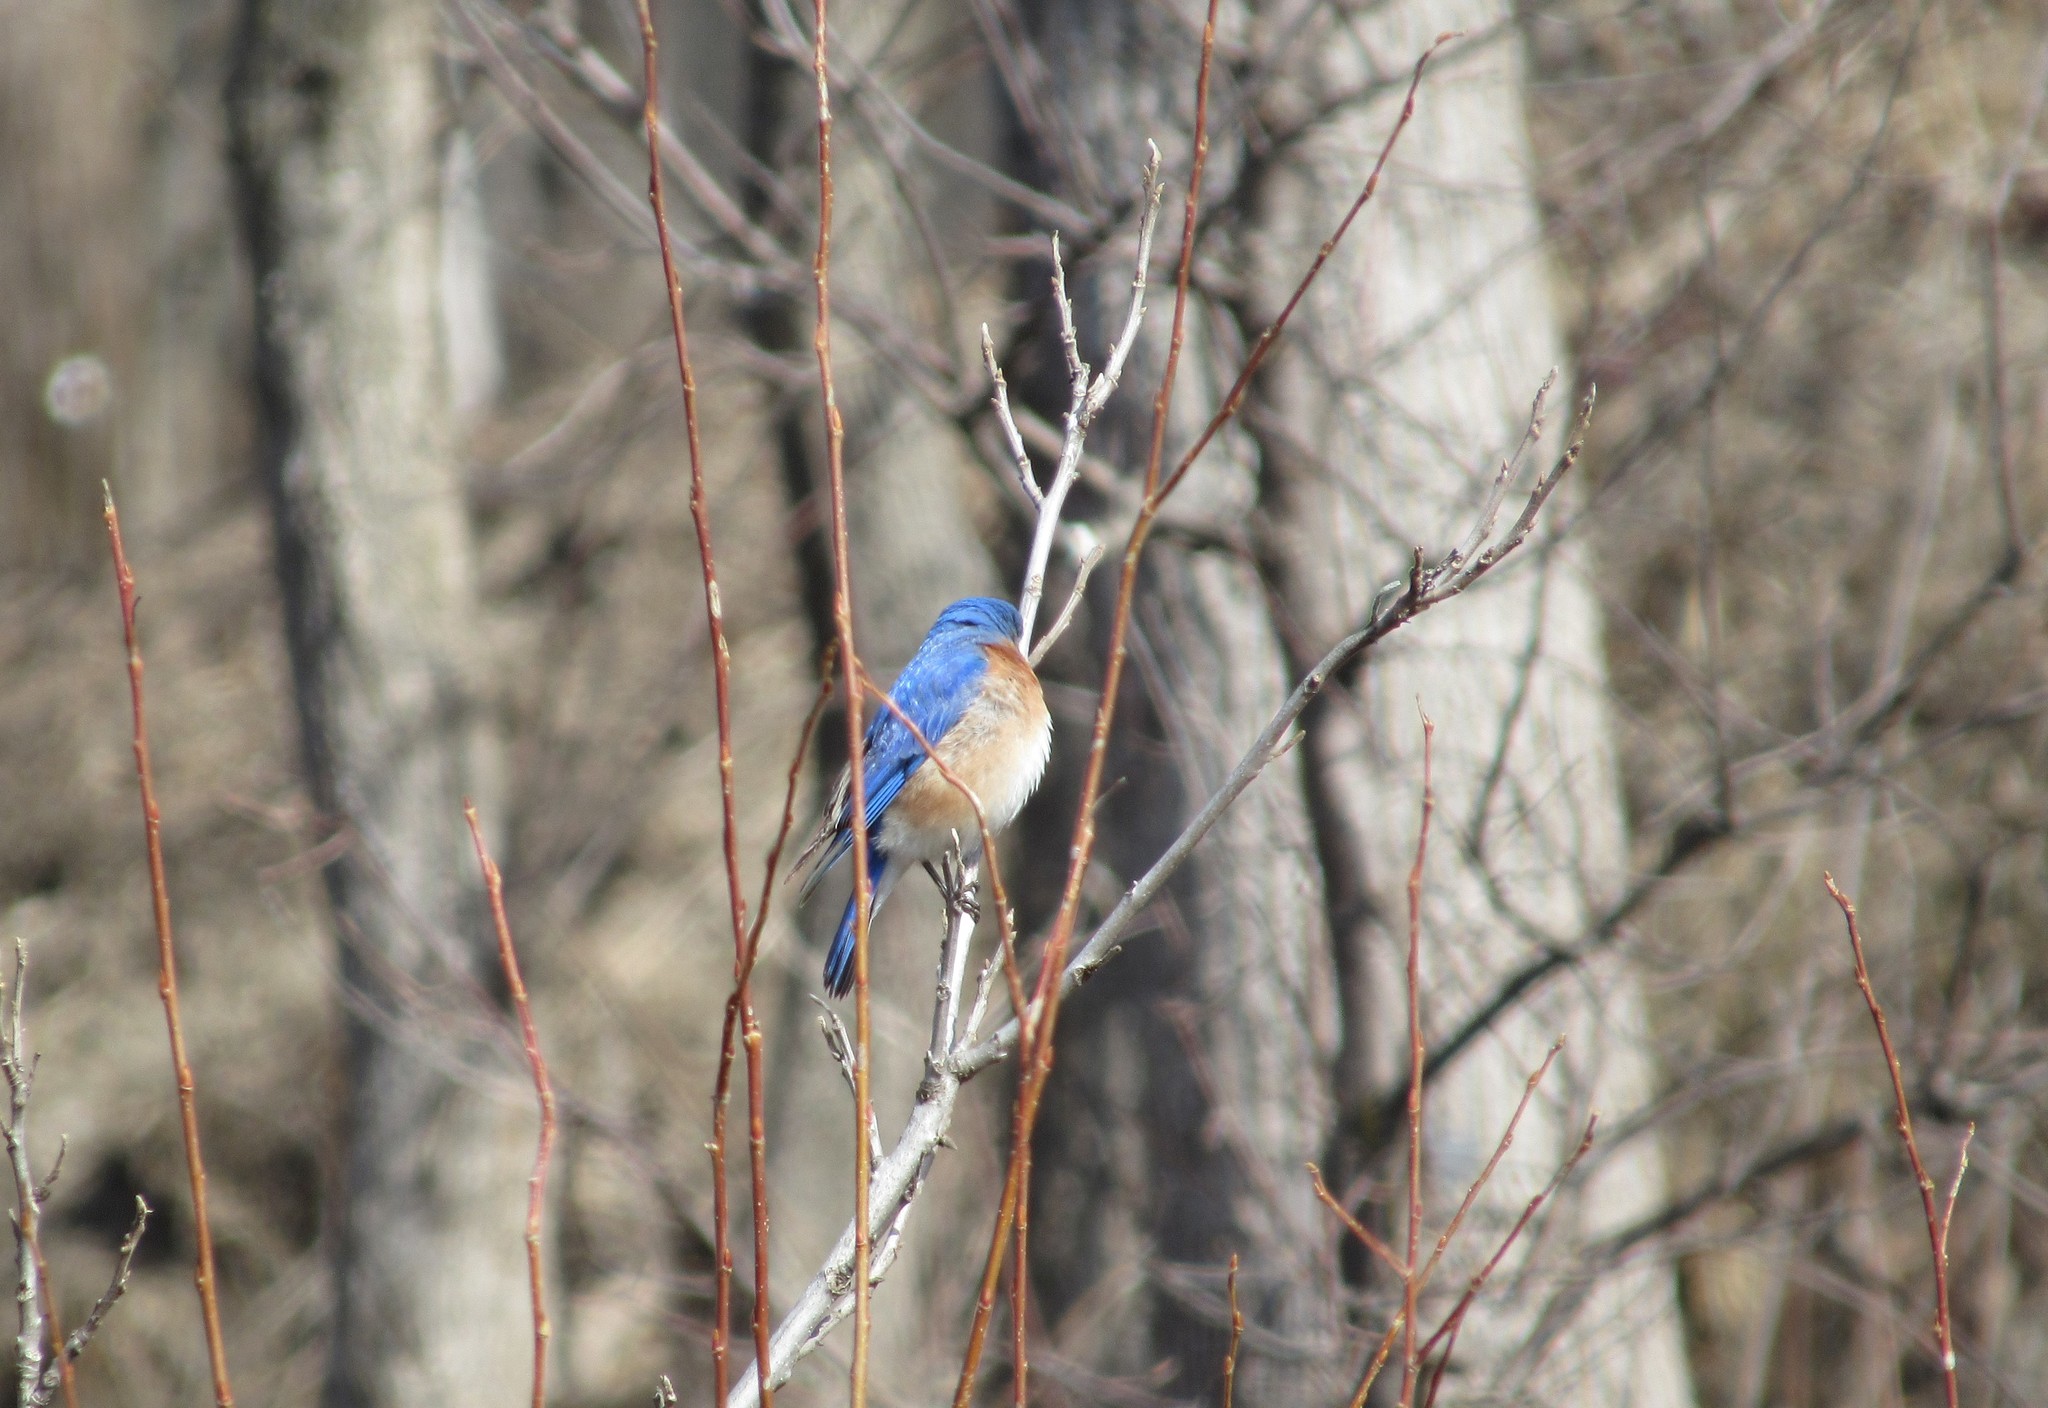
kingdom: Animalia
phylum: Chordata
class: Aves
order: Passeriformes
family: Turdidae
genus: Sialia
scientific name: Sialia sialis
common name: Eastern bluebird
